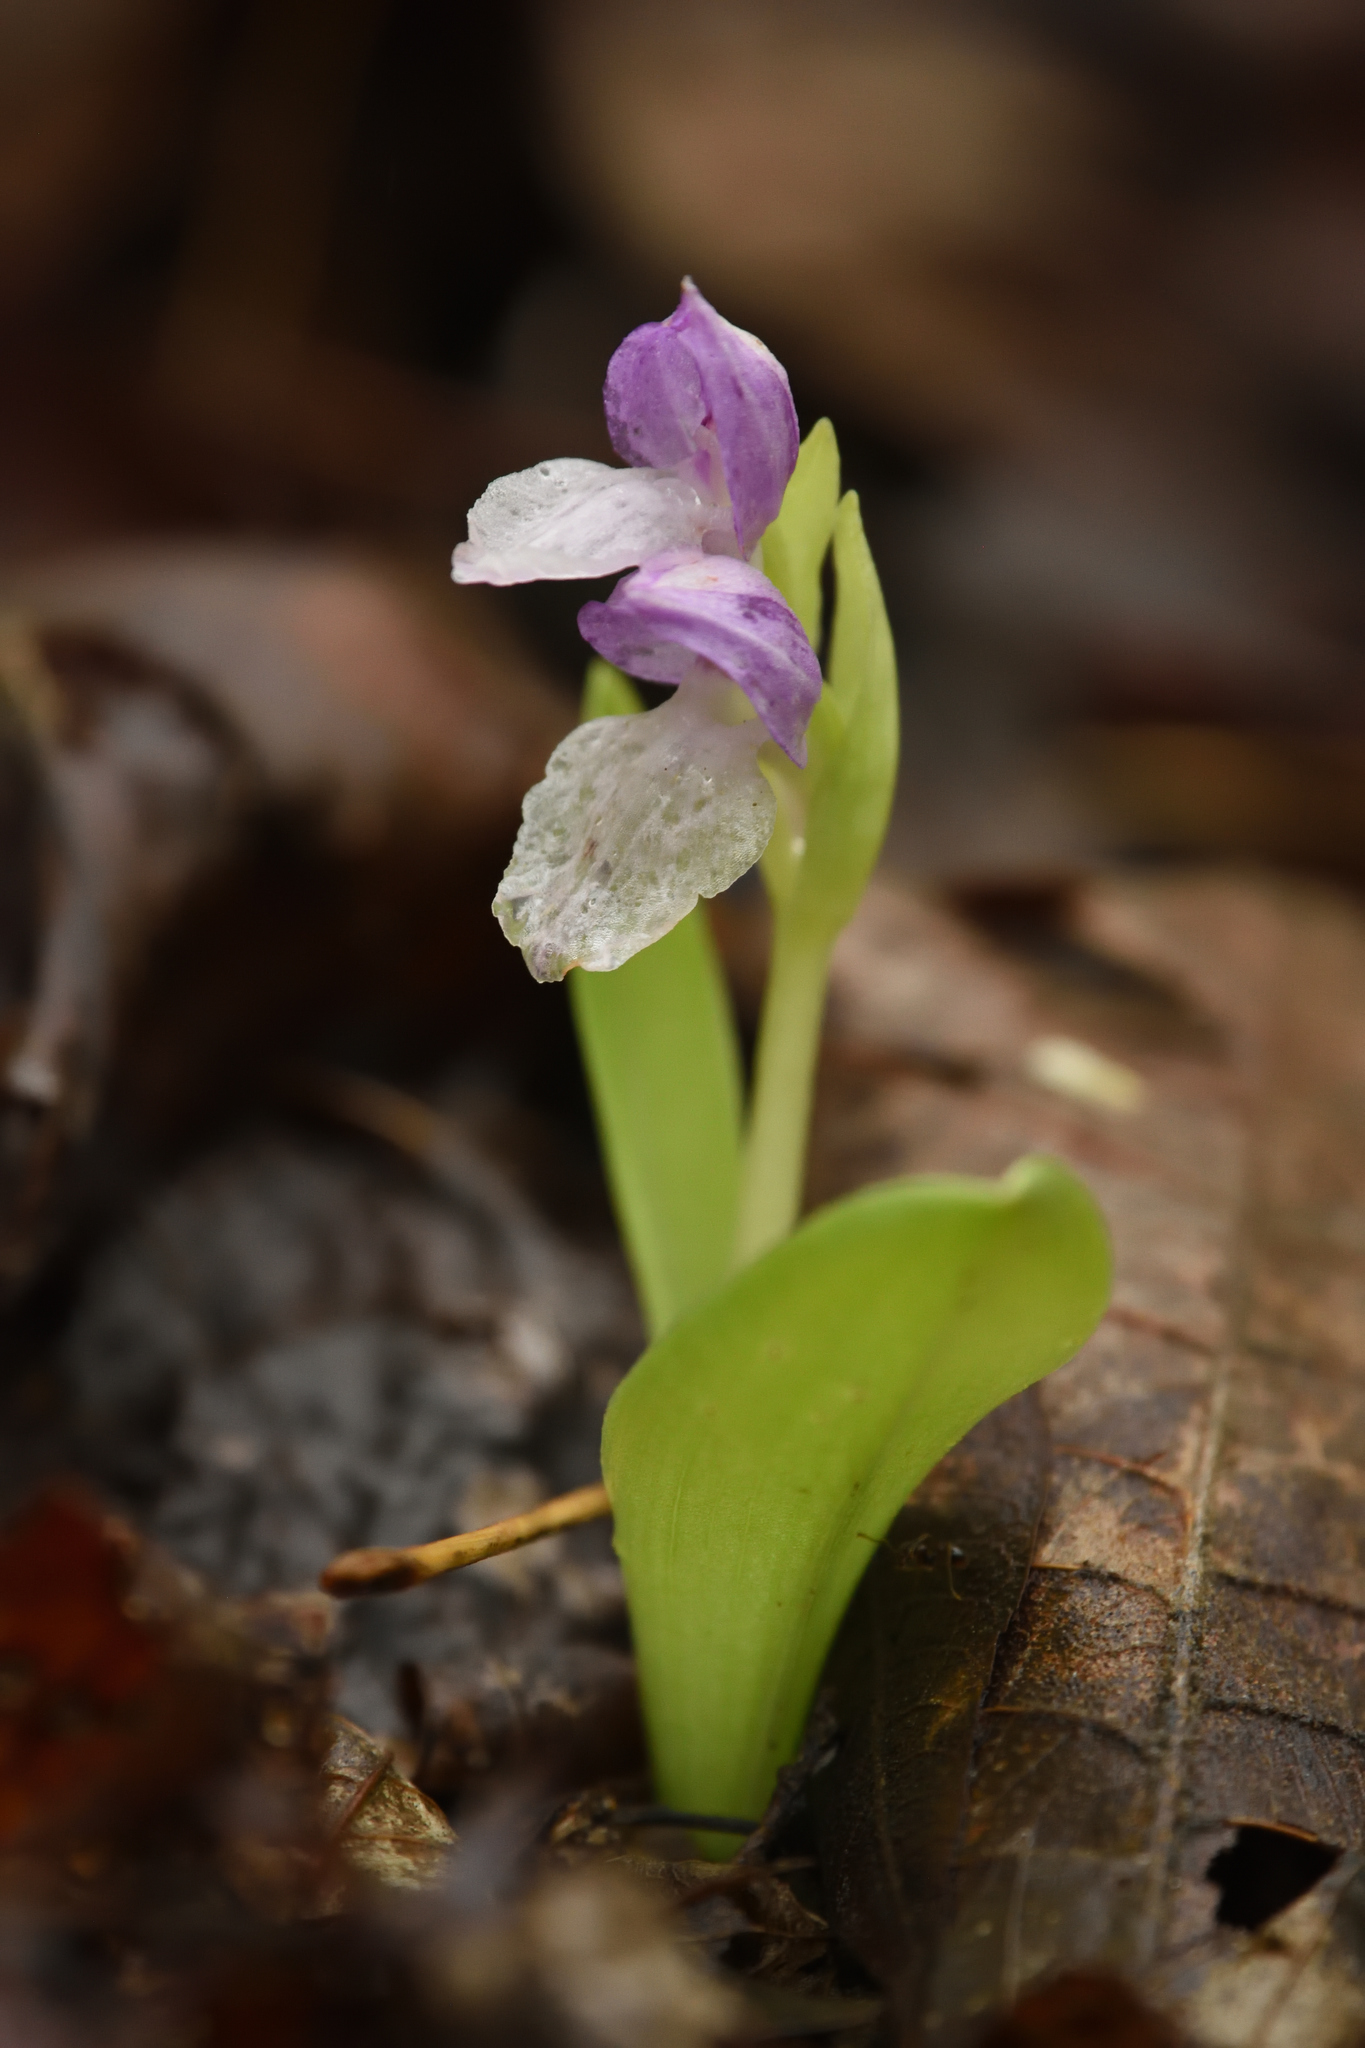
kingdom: Plantae
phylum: Tracheophyta
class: Liliopsida
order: Asparagales
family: Orchidaceae
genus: Galearis
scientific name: Galearis spectabilis
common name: Purple-hooded orchis
